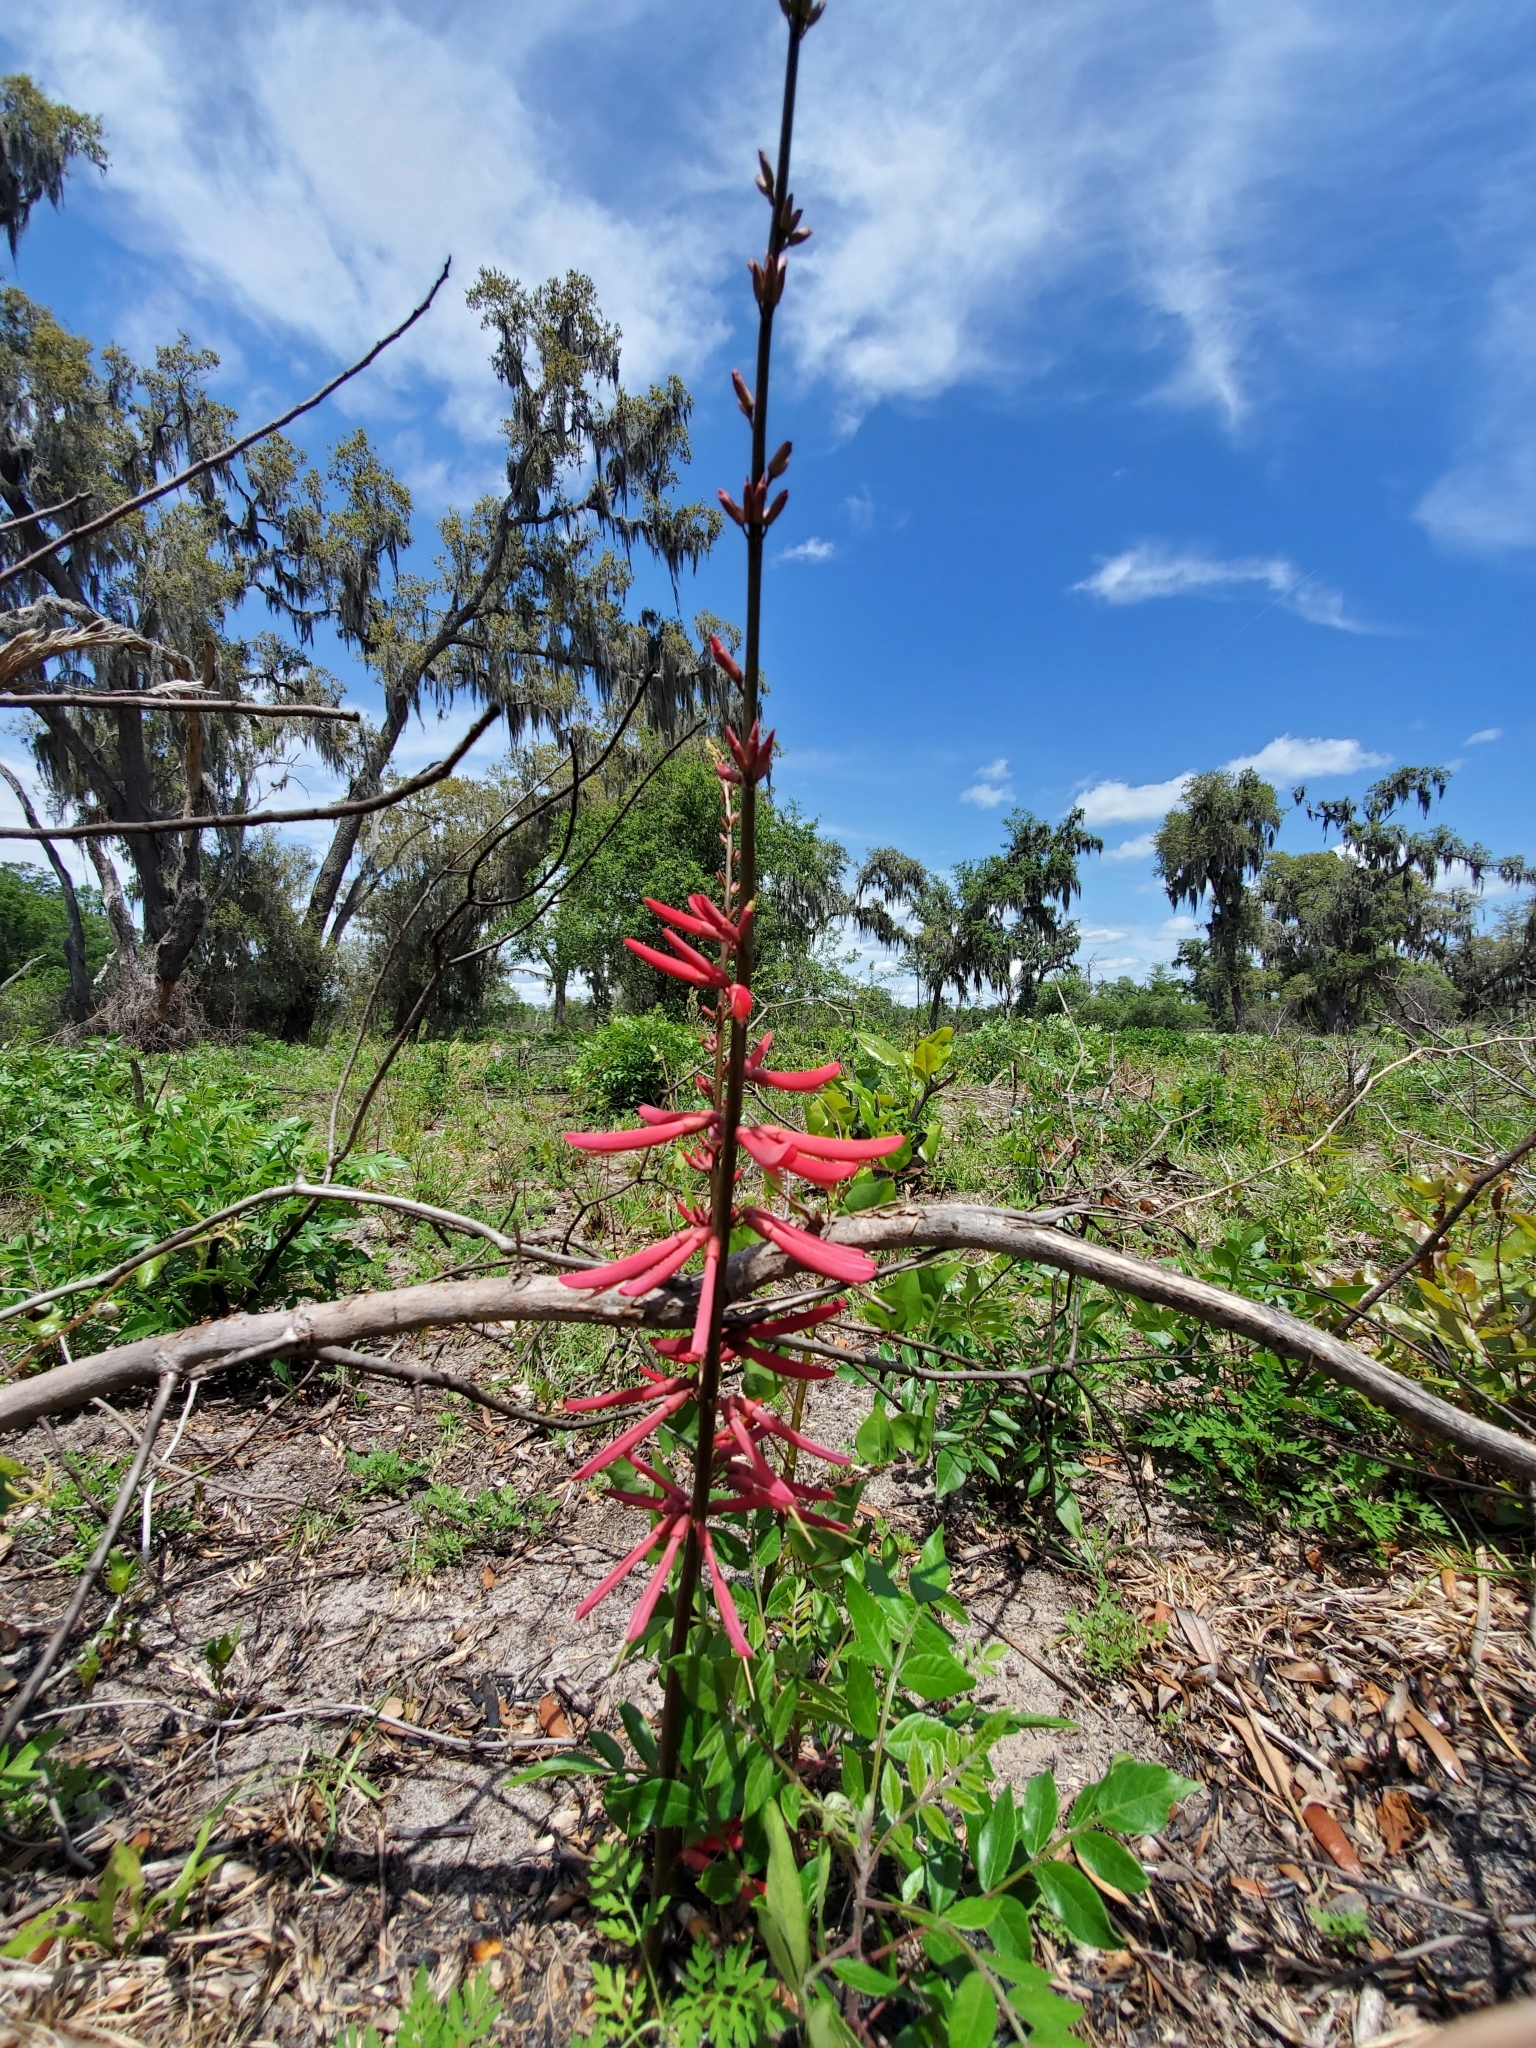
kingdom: Plantae
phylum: Tracheophyta
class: Magnoliopsida
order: Fabales
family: Fabaceae
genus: Erythrina
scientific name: Erythrina herbacea
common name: Coral-bean
